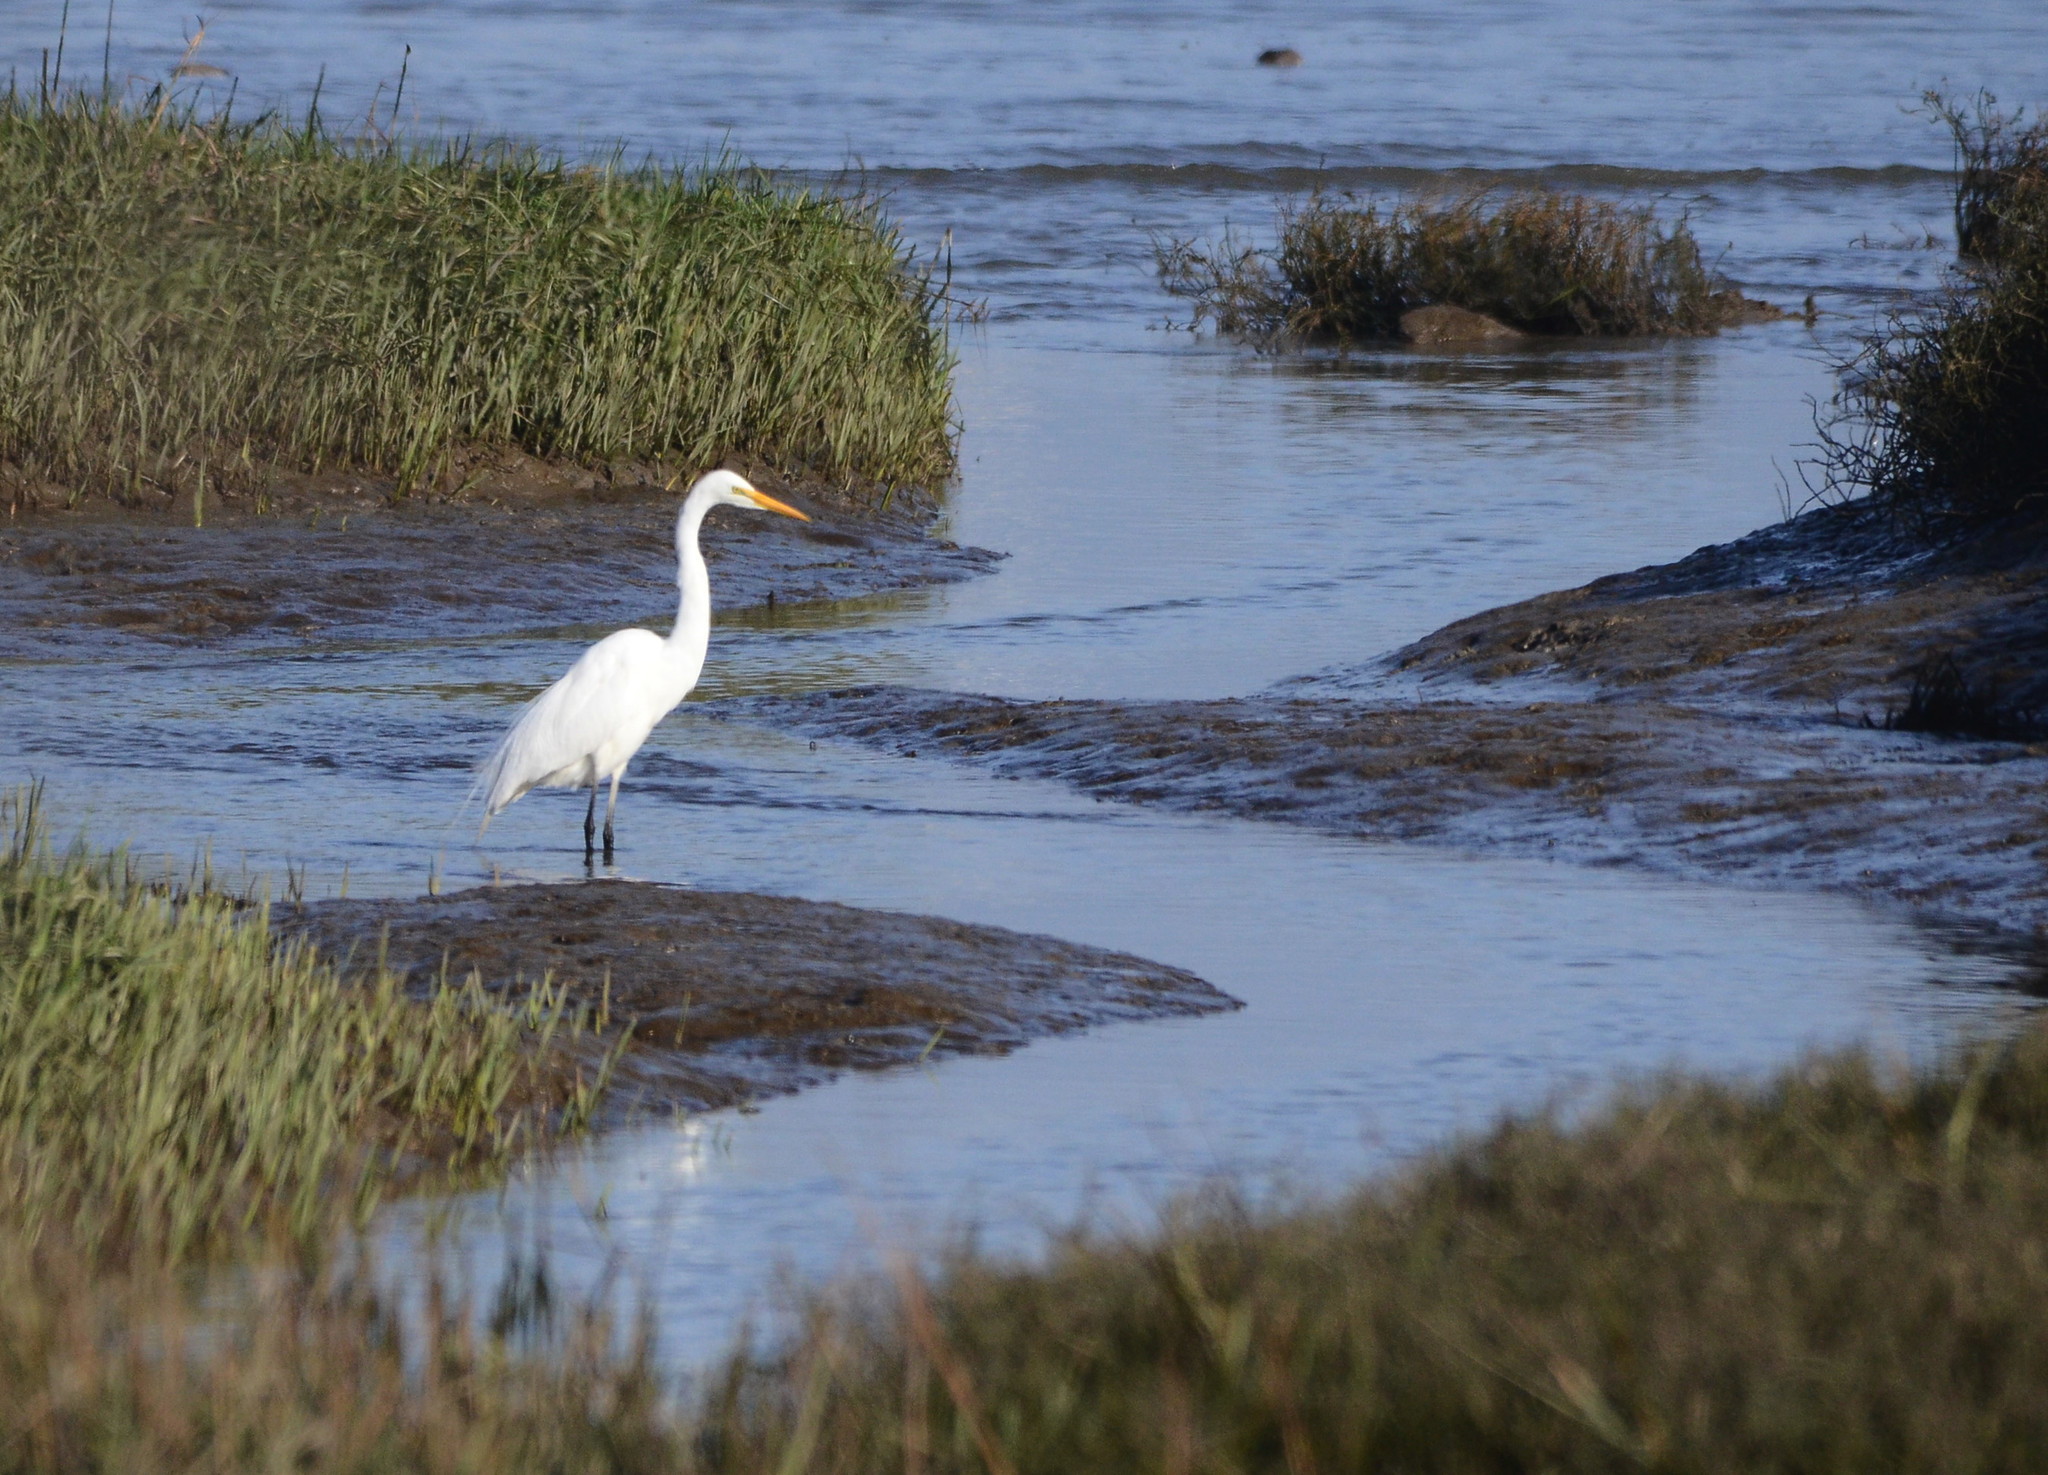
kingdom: Animalia
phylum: Chordata
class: Aves
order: Pelecaniformes
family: Ardeidae
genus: Ardea
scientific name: Ardea alba
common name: Great egret
